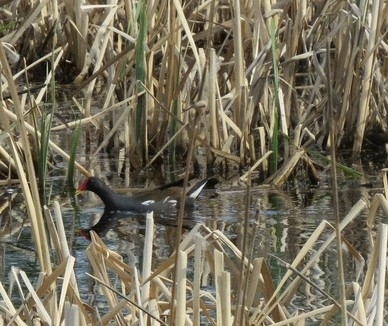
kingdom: Animalia
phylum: Chordata
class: Aves
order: Gruiformes
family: Rallidae
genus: Gallinula
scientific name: Gallinula chloropus
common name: Common moorhen
